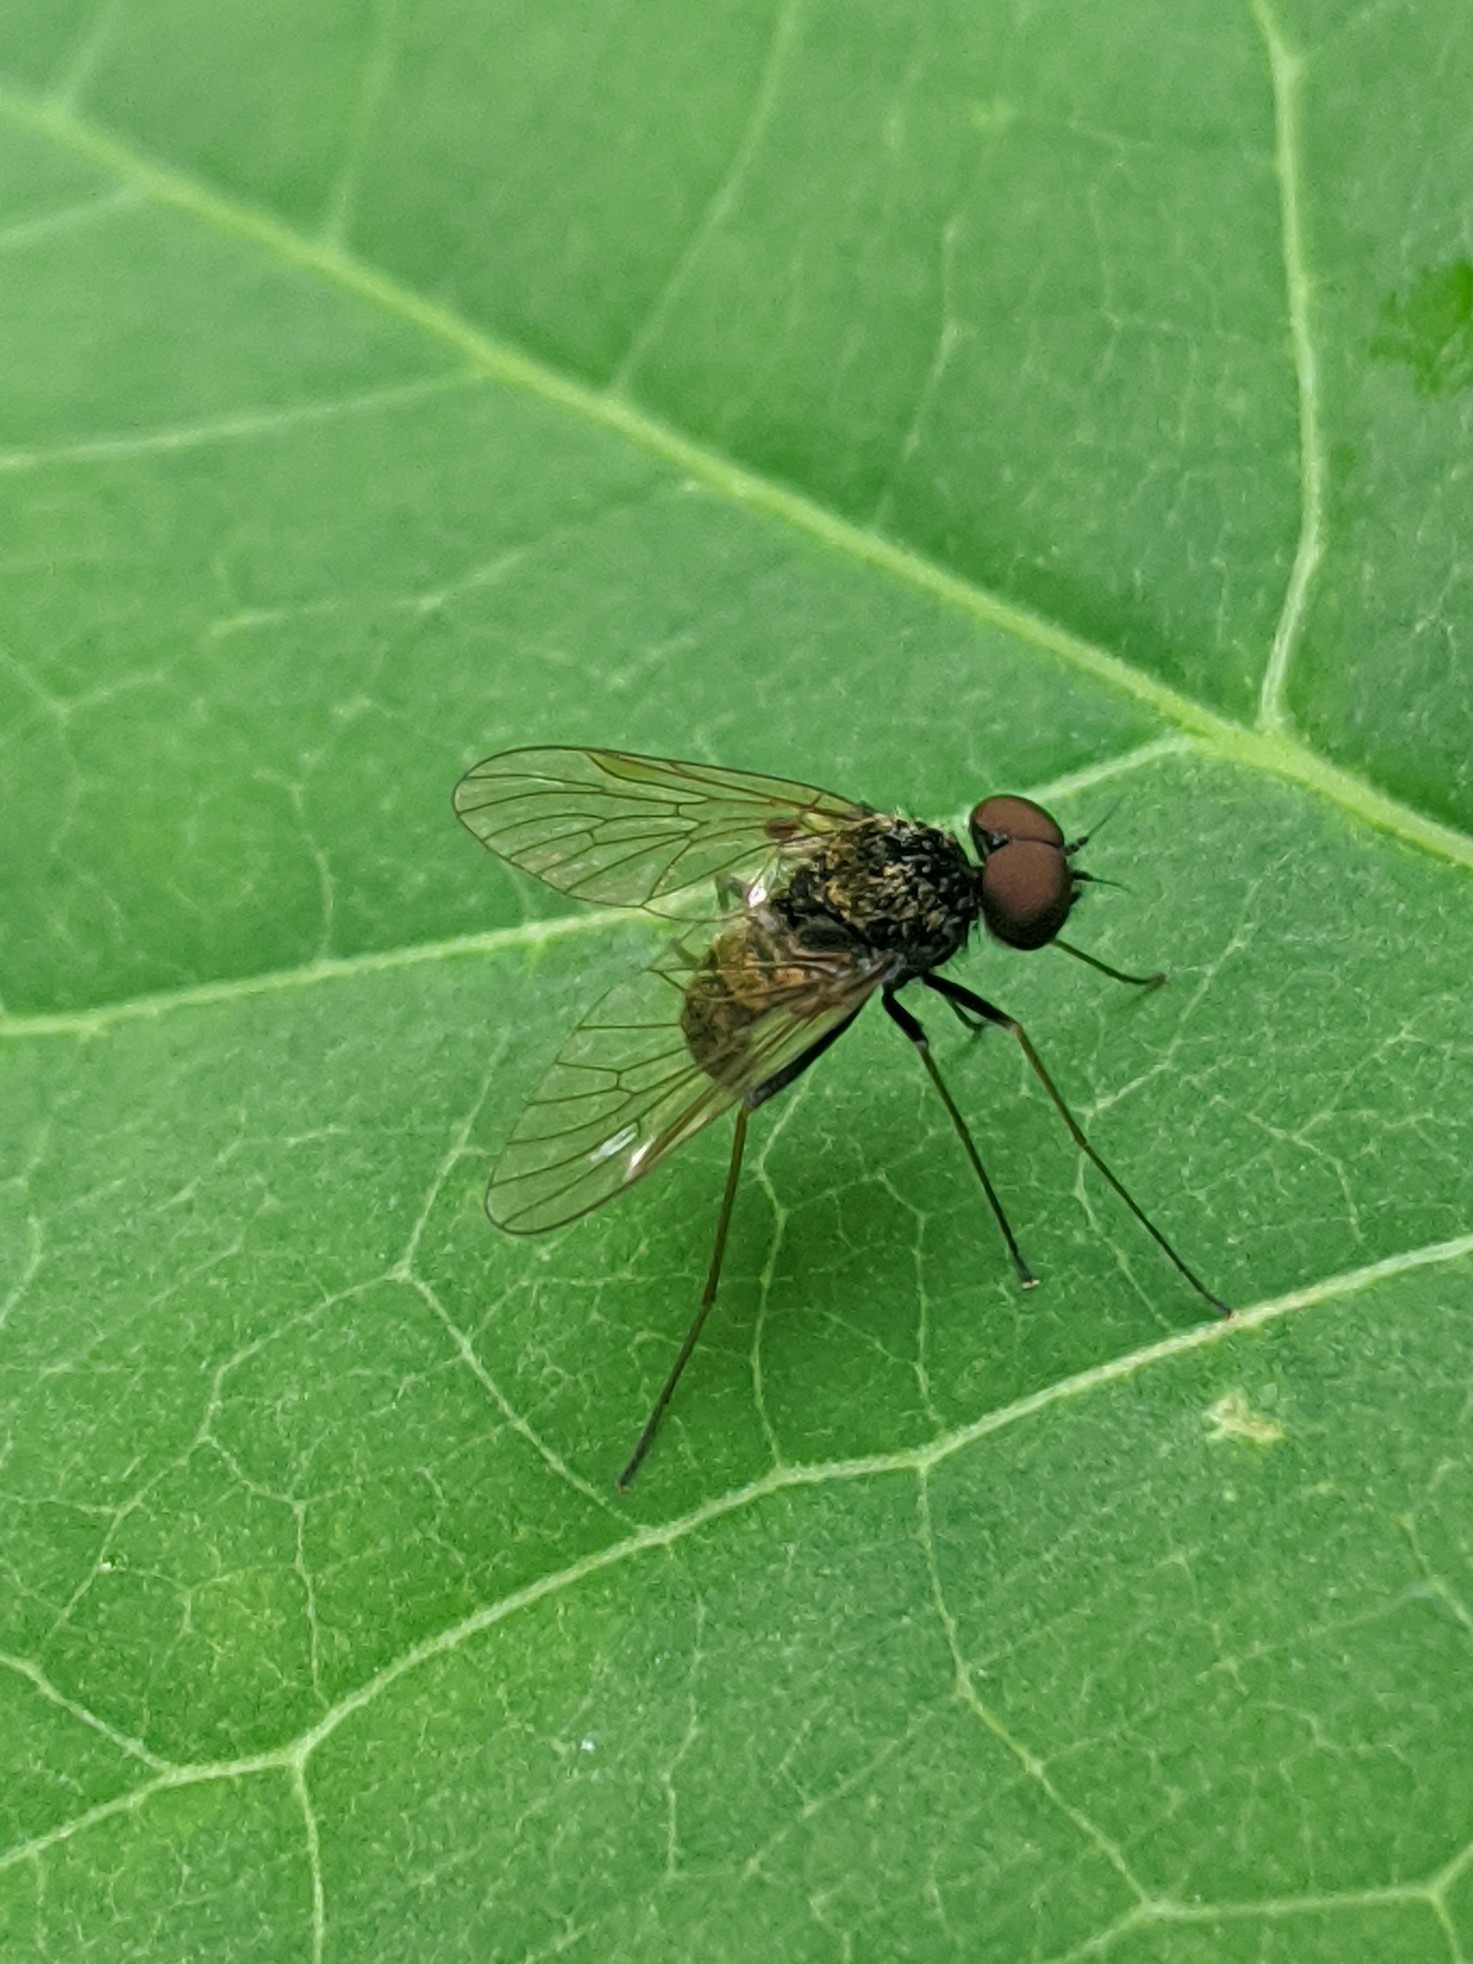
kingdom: Animalia
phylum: Arthropoda
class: Insecta
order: Diptera
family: Rhagionidae
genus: Chrysopilus
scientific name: Chrysopilus proximus
